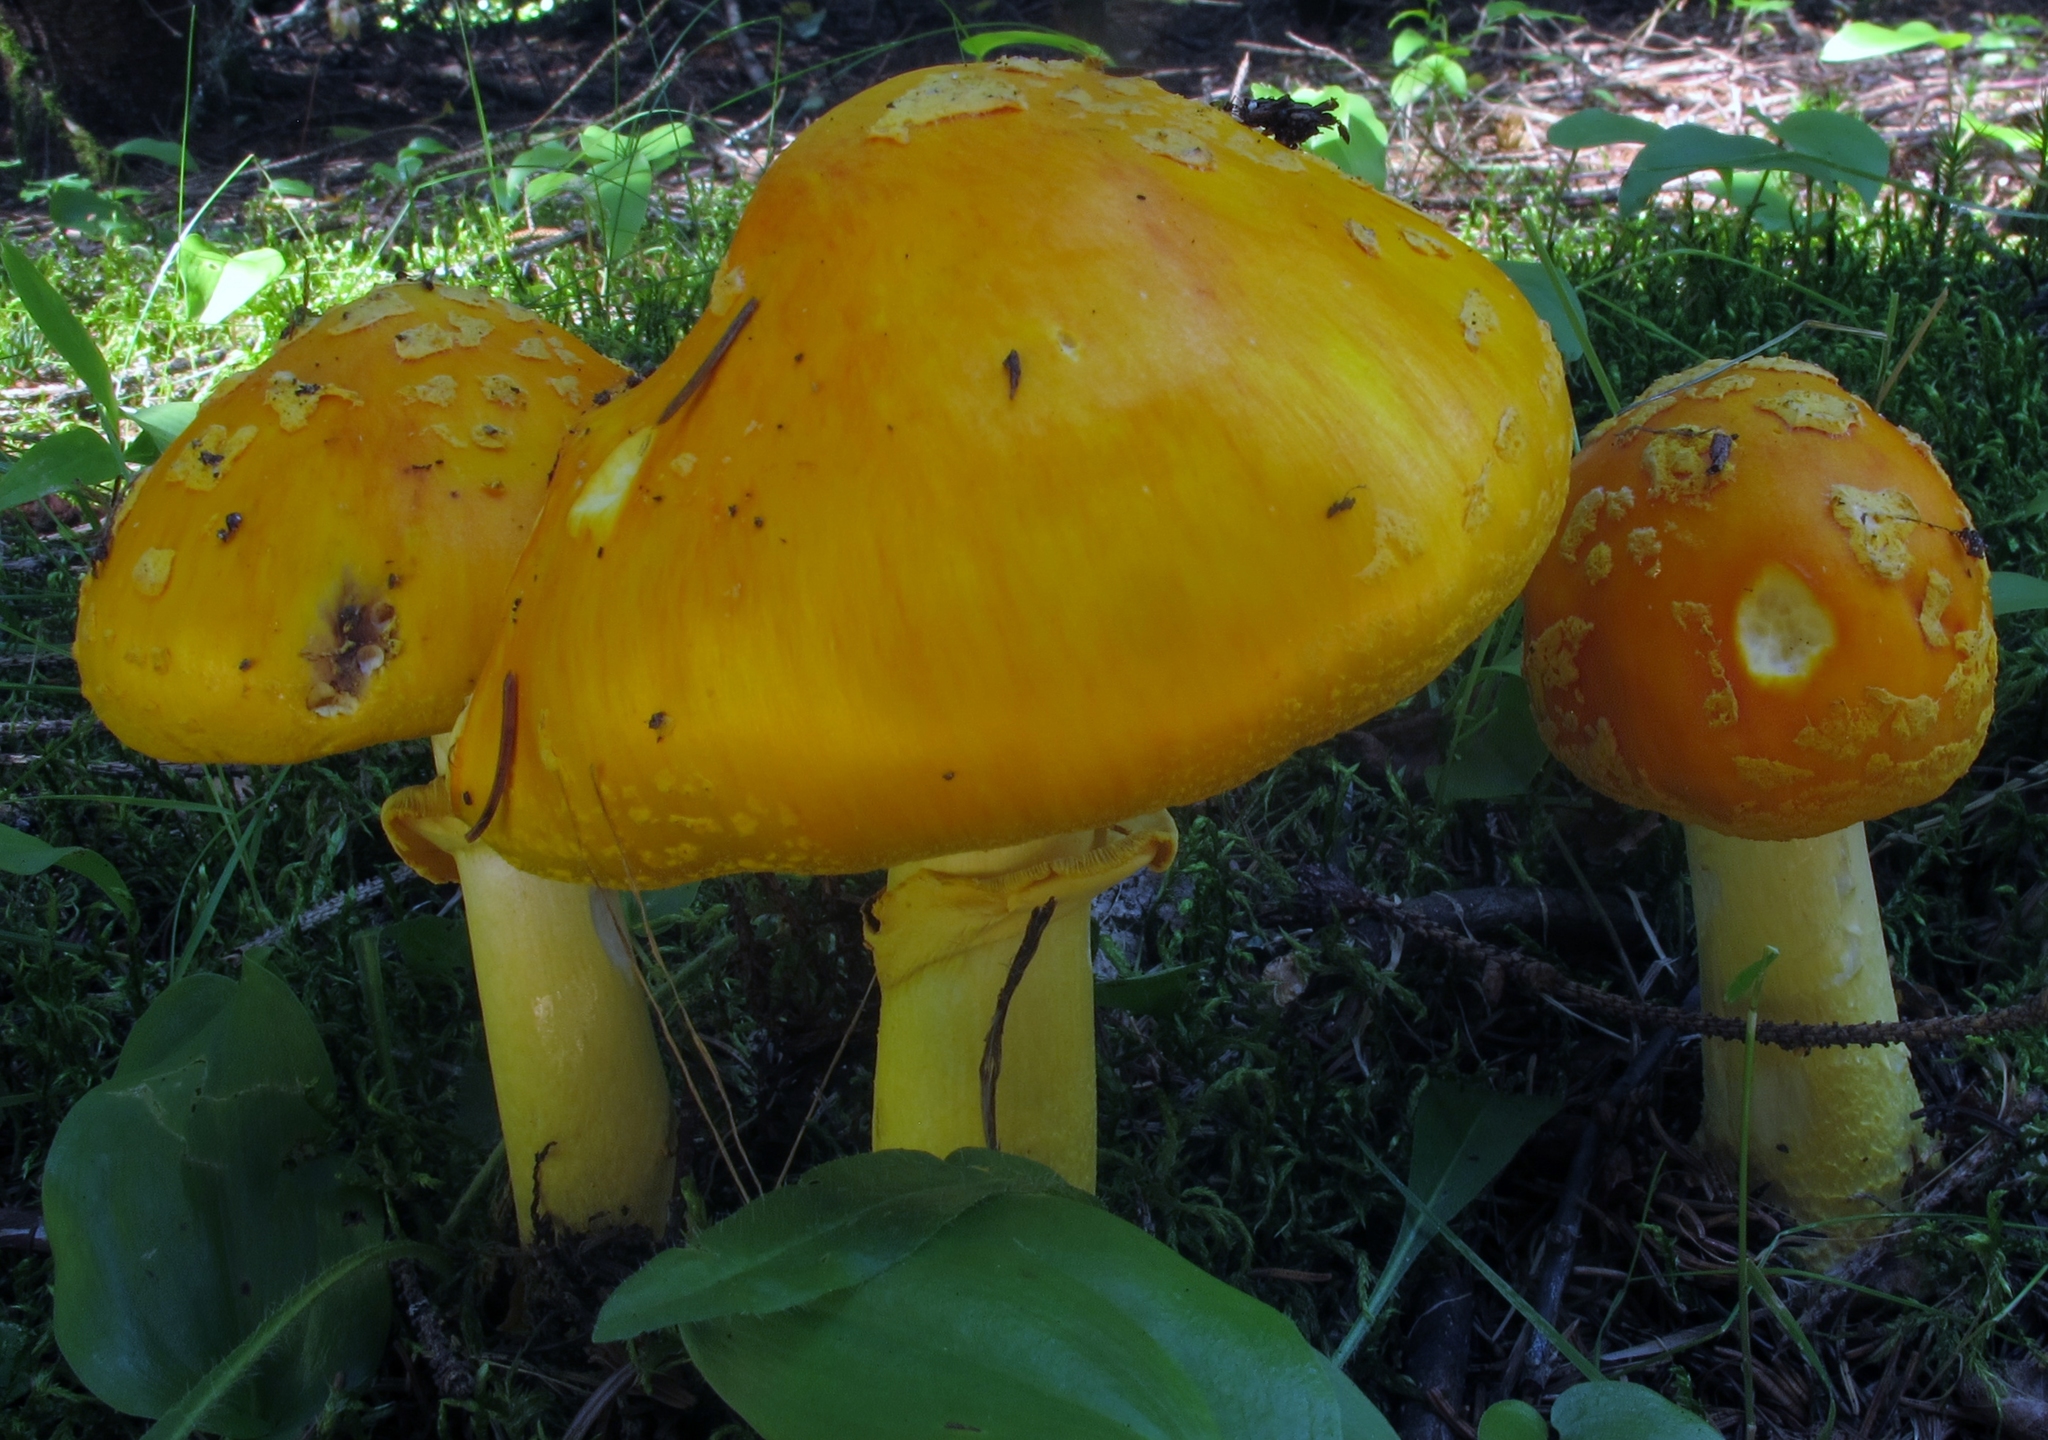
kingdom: Fungi
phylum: Basidiomycota
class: Agaricomycetes
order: Agaricales
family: Amanitaceae
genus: Amanita
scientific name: Amanita flavoconia
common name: Yellow patches
